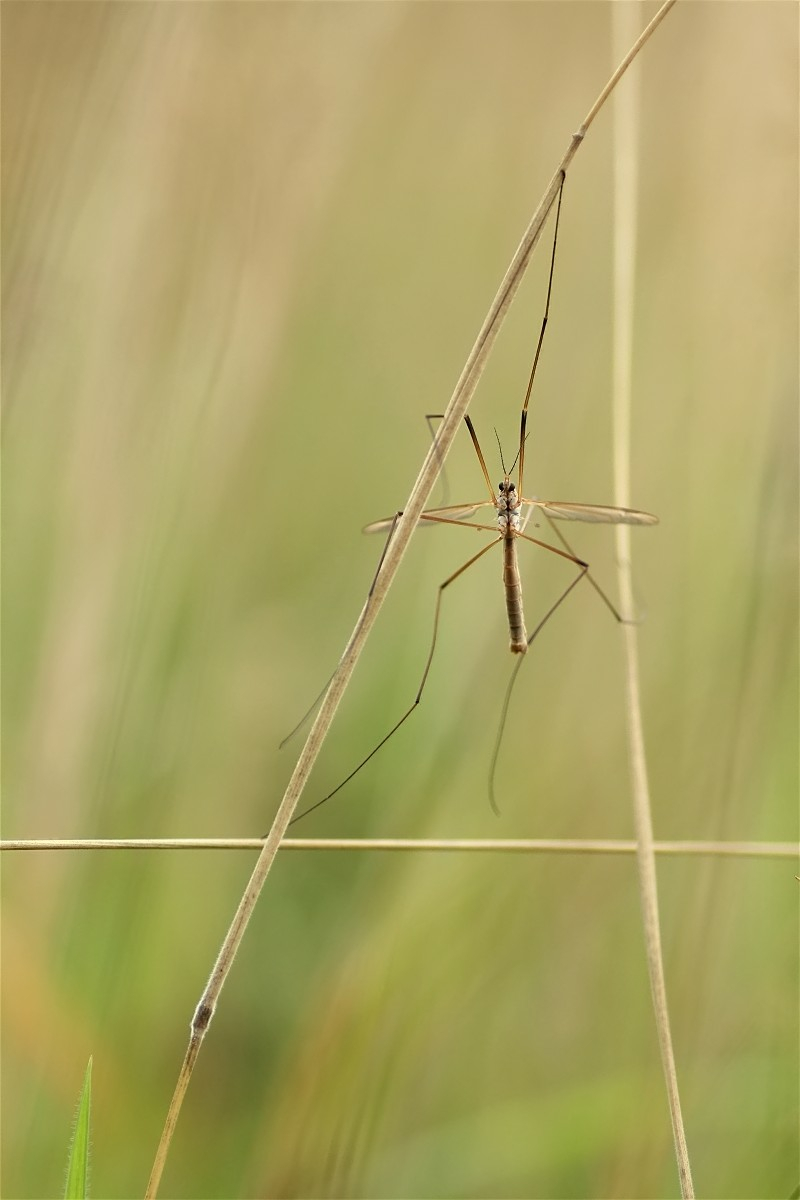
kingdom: Animalia
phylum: Arthropoda
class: Insecta
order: Diptera
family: Tipulidae
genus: Tipula
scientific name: Tipula
